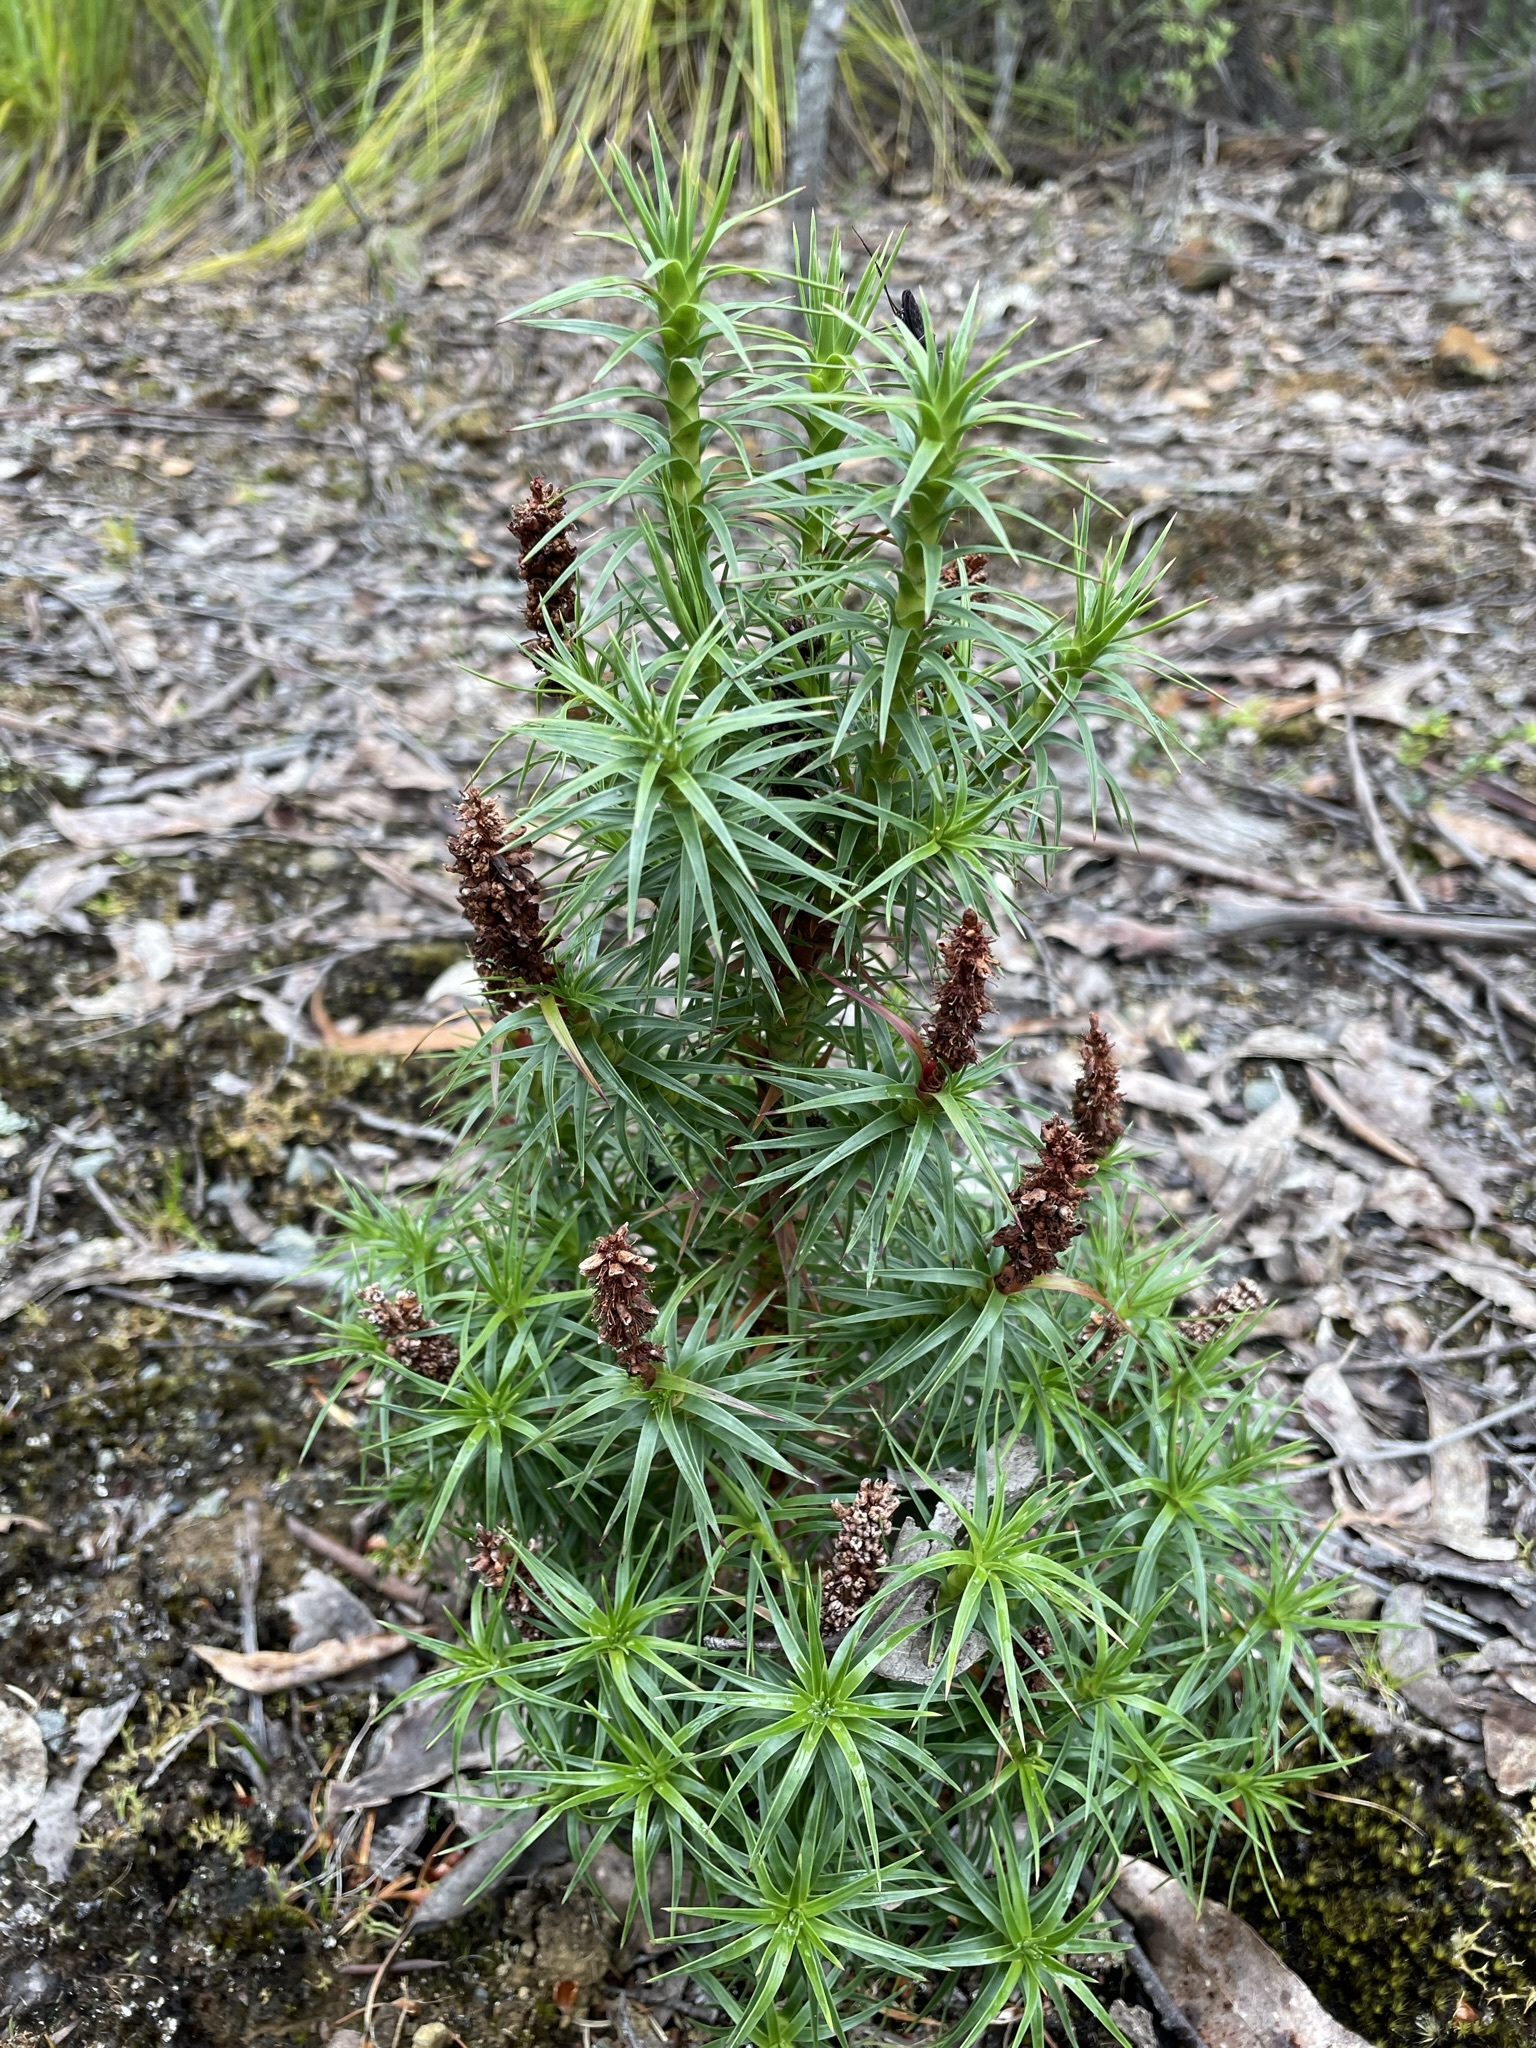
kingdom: Plantae
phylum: Tracheophyta
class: Magnoliopsida
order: Ericales
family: Ericaceae
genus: Dracophyllum
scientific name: Dracophyllum persistentifolium
